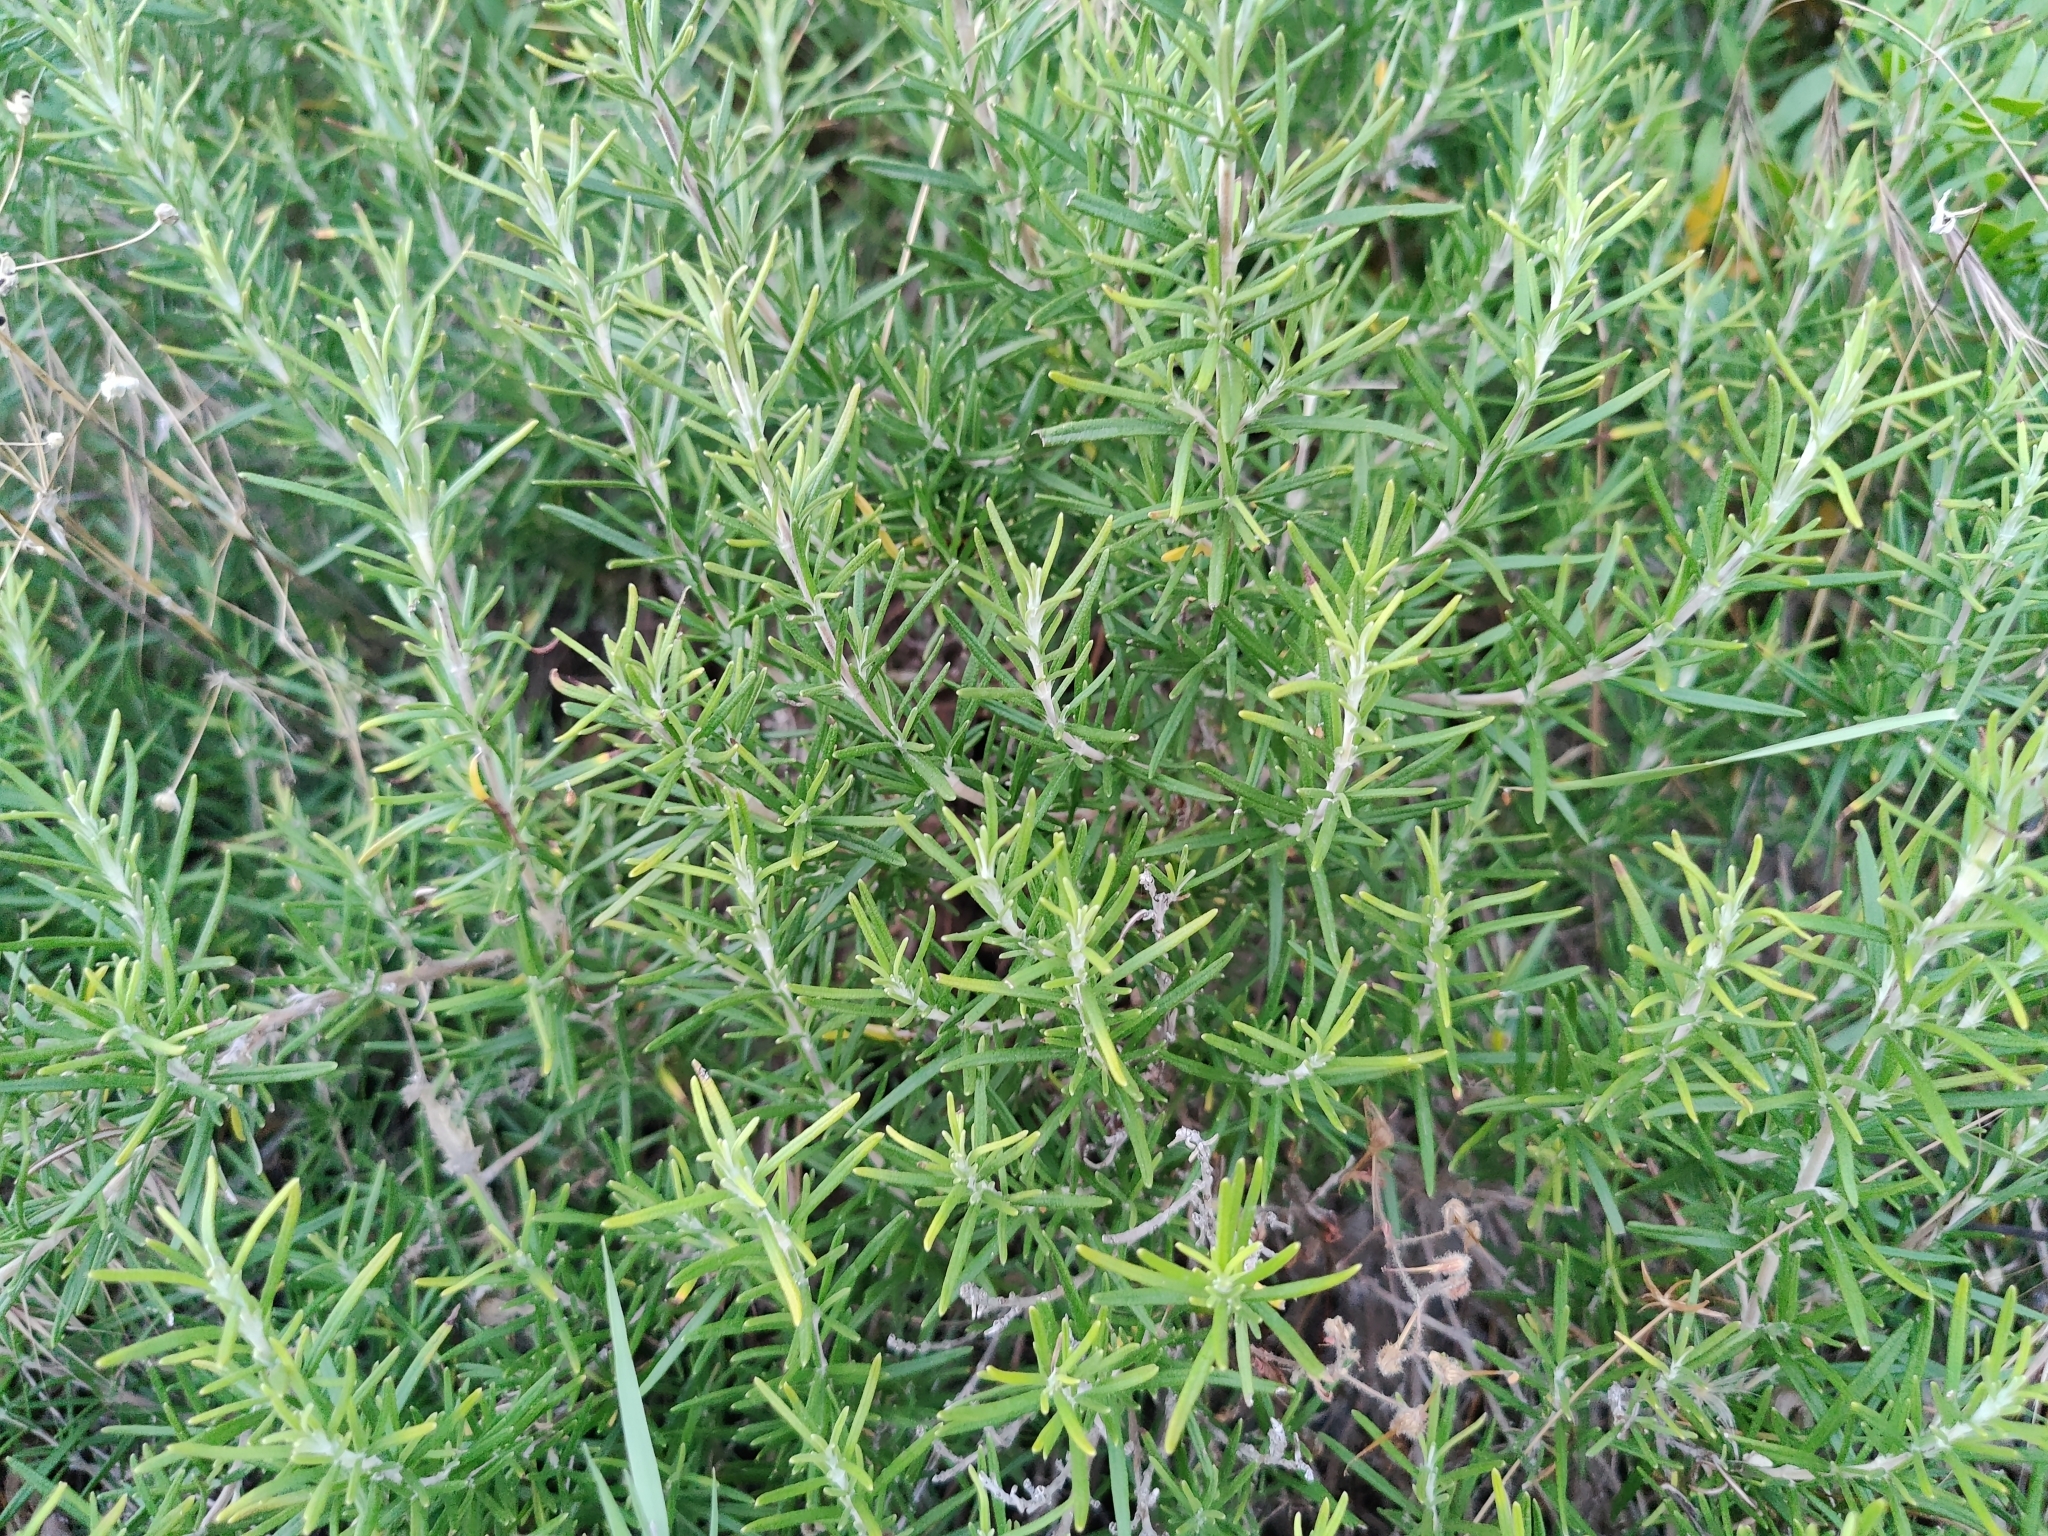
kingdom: Plantae
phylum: Tracheophyta
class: Magnoliopsida
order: Lamiales
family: Lamiaceae
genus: Salvia
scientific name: Salvia rosmarinus
